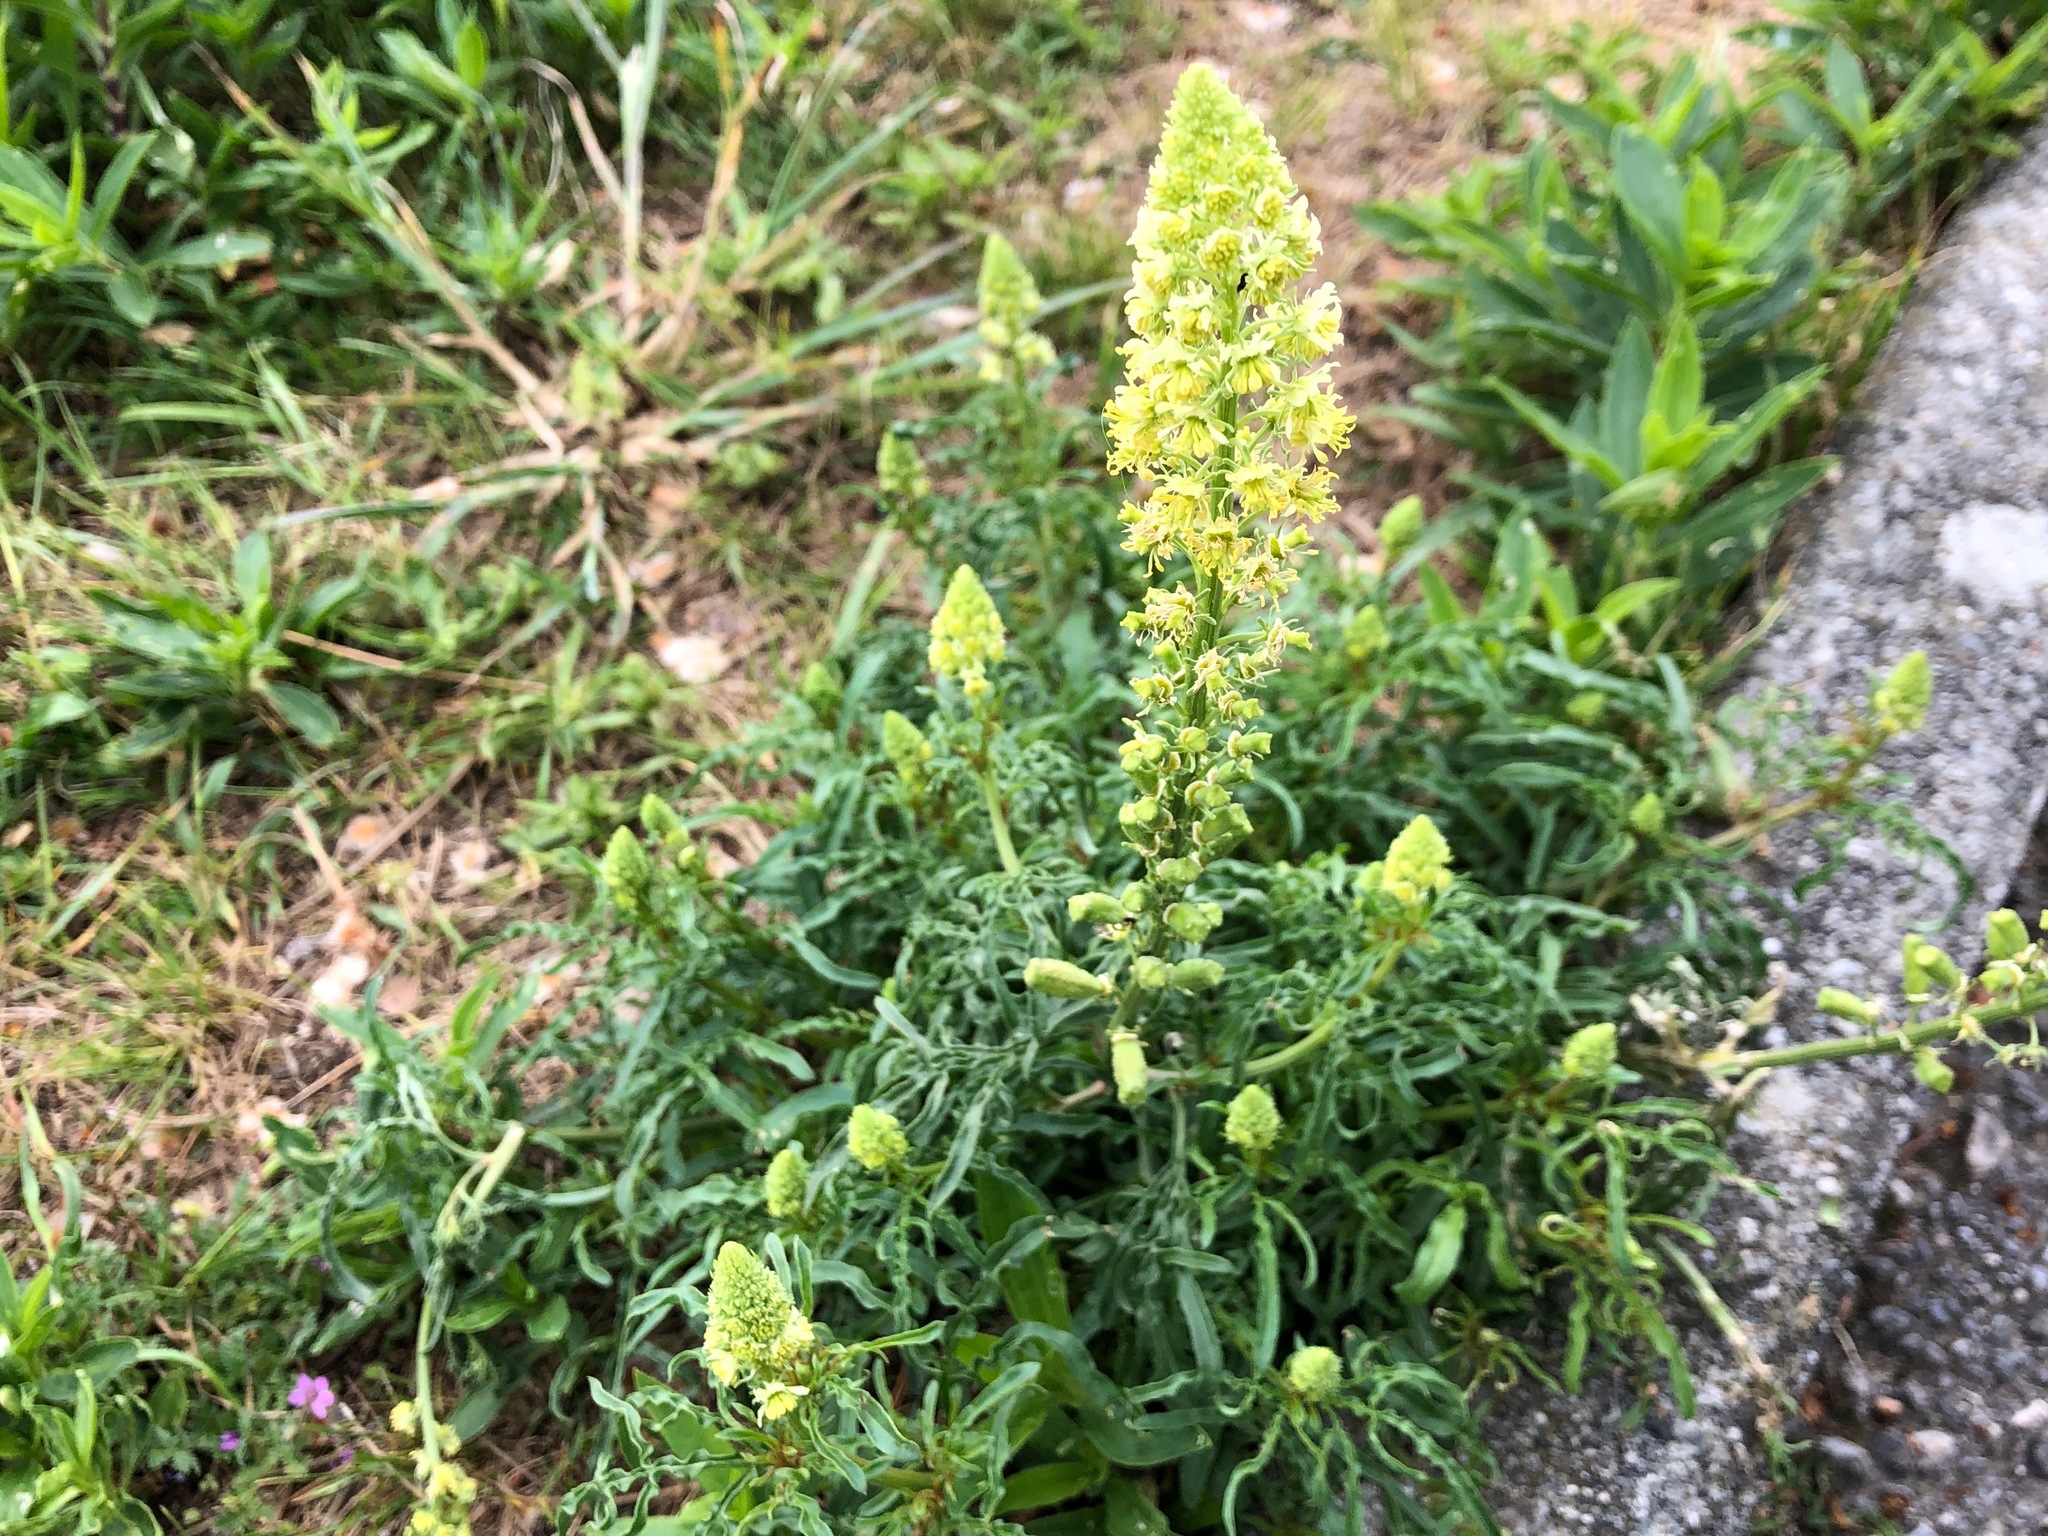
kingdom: Plantae
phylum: Tracheophyta
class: Magnoliopsida
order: Brassicales
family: Resedaceae
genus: Reseda
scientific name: Reseda lutea
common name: Wild mignonette
